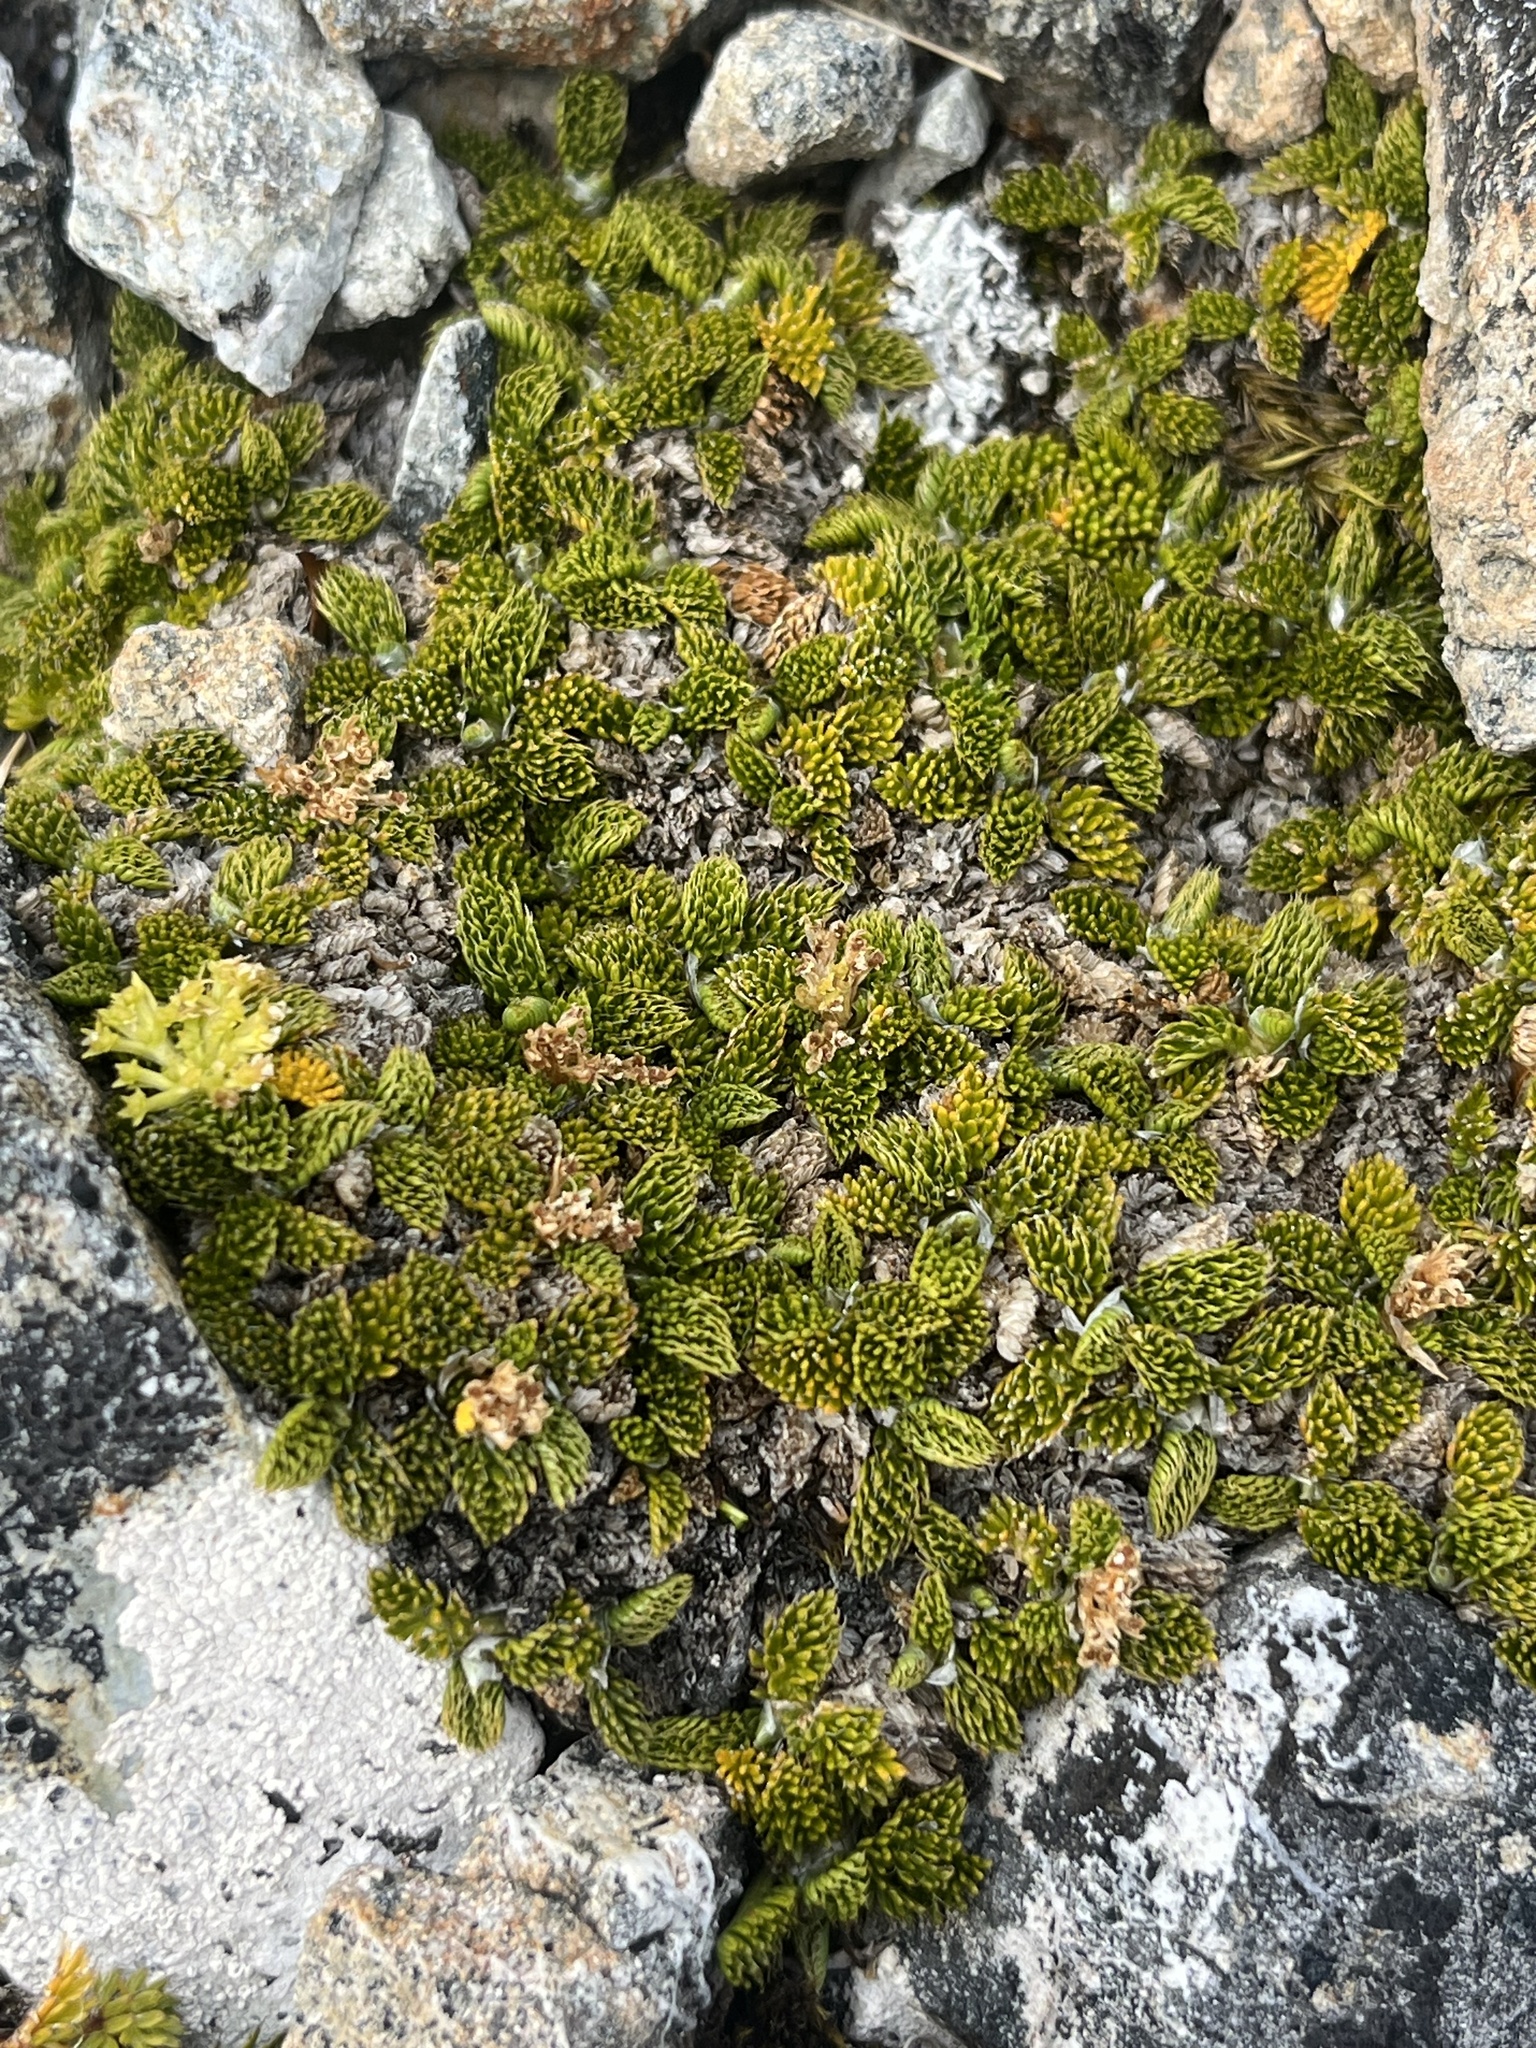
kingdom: Plantae
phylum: Tracheophyta
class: Magnoliopsida
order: Apiales
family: Apiaceae
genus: Anisotome
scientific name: Anisotome imbricata
